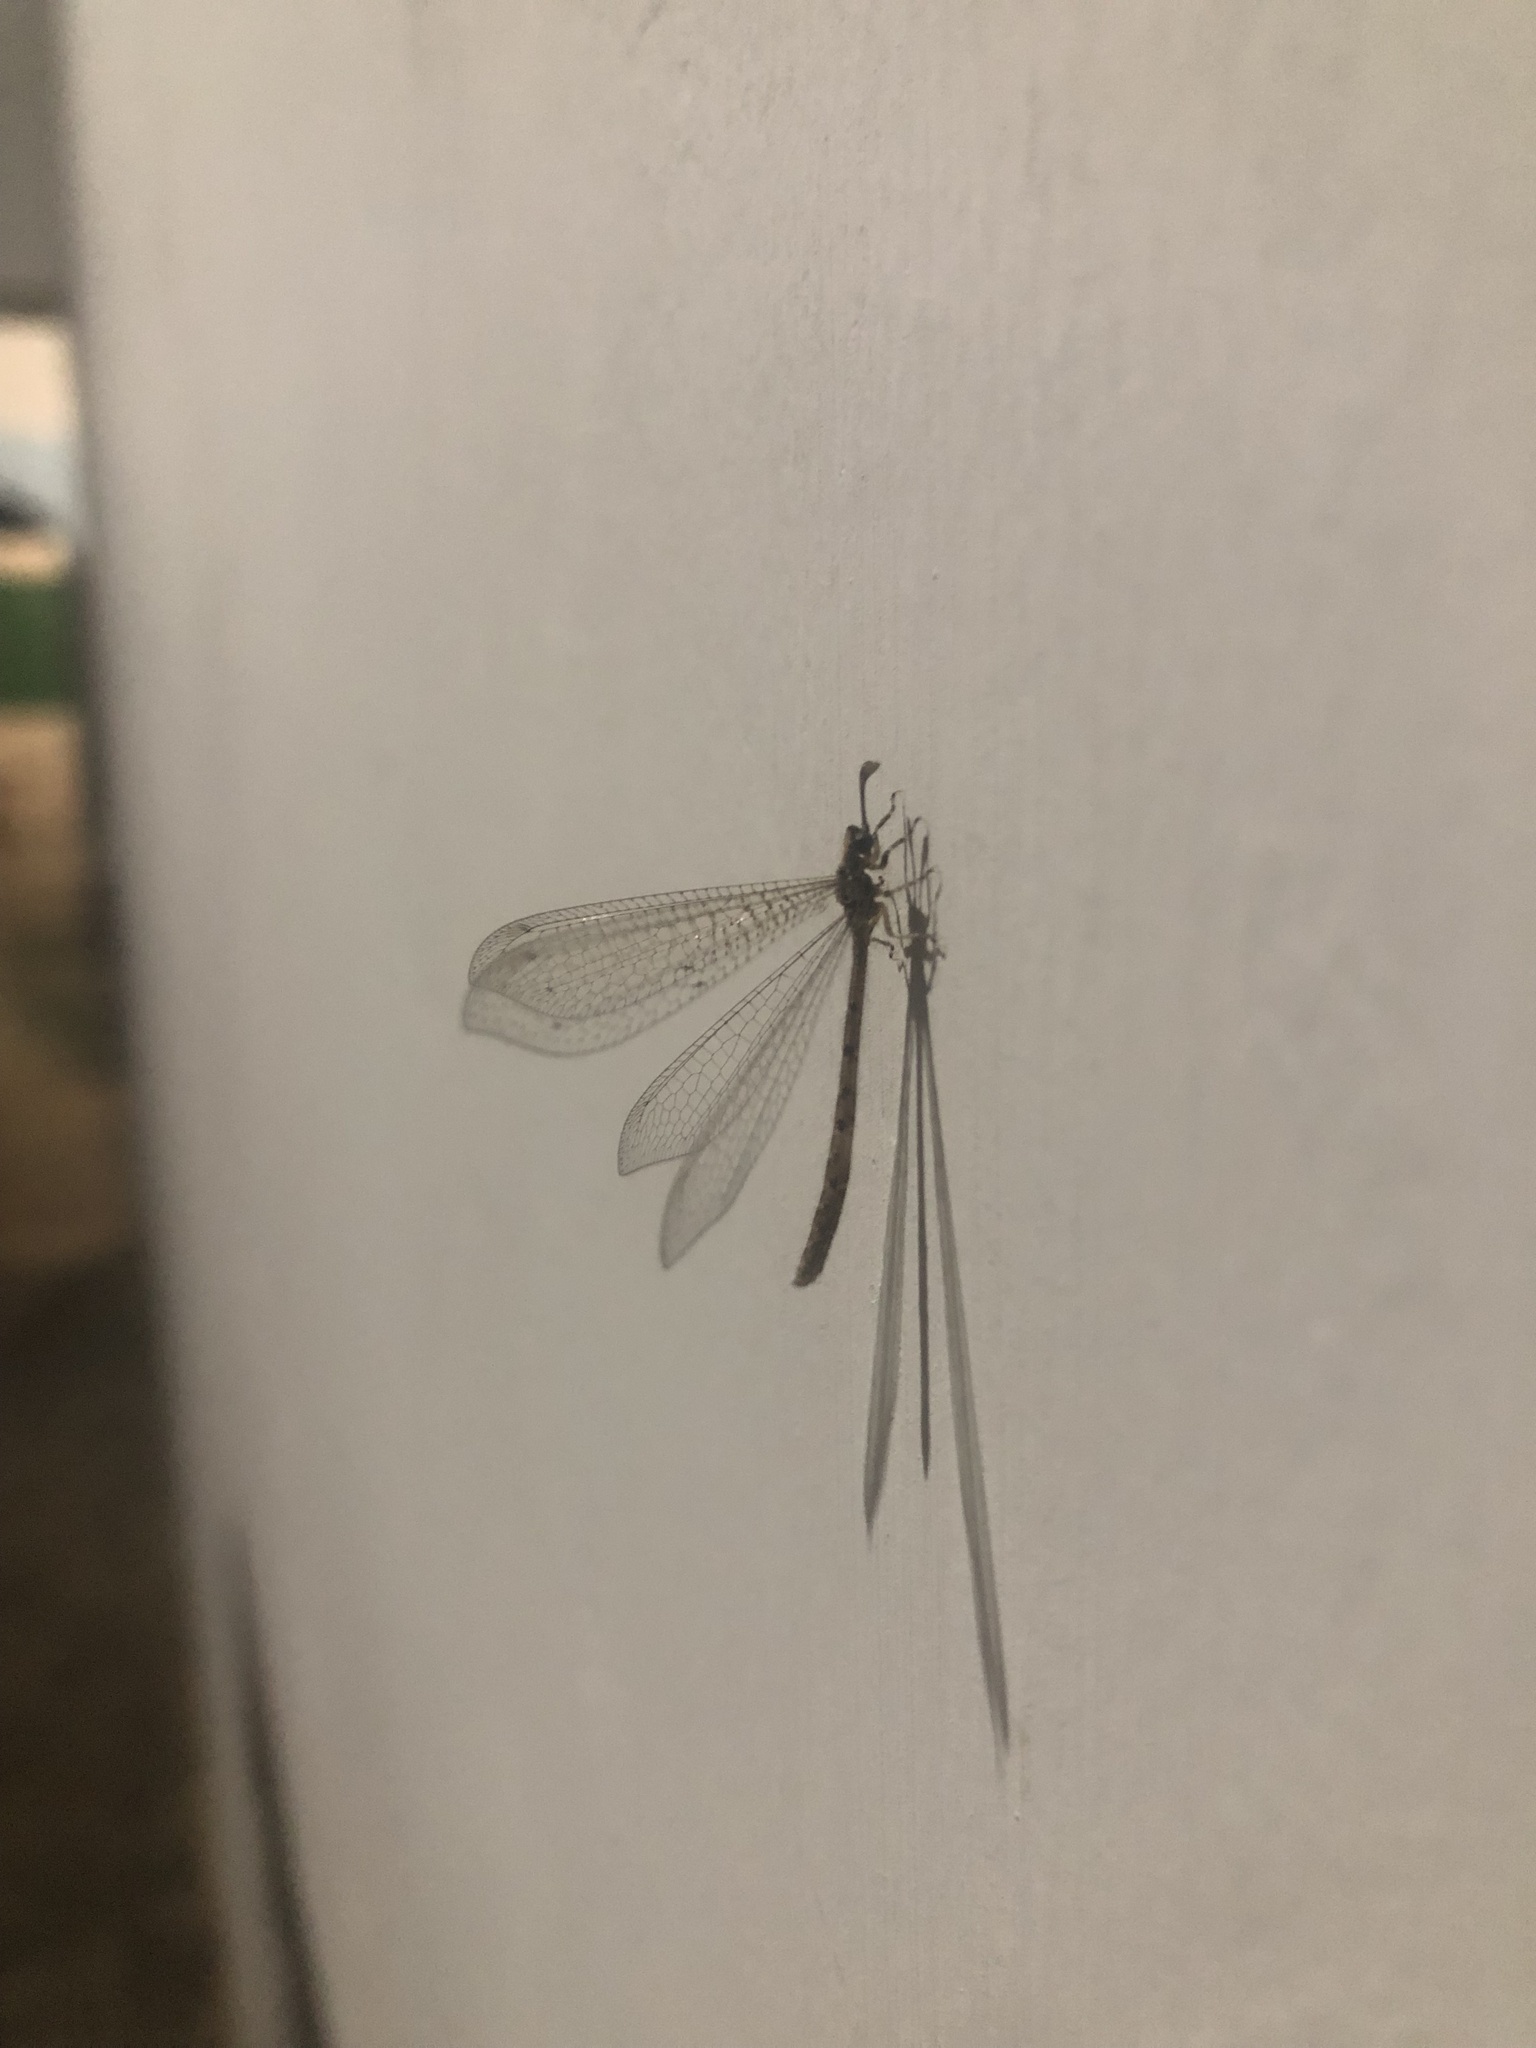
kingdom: Animalia
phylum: Arthropoda
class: Insecta
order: Neuroptera
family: Myrmeleontidae
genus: Austroleon
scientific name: Austroleon immitis
